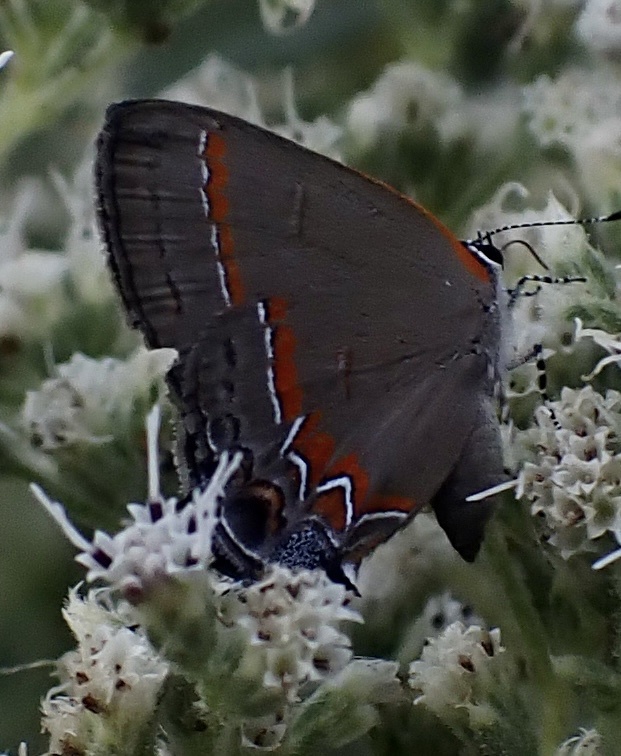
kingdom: Animalia
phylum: Arthropoda
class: Insecta
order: Lepidoptera
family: Lycaenidae
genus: Calycopis
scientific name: Calycopis cecrops
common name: Red-banded hairstreak
